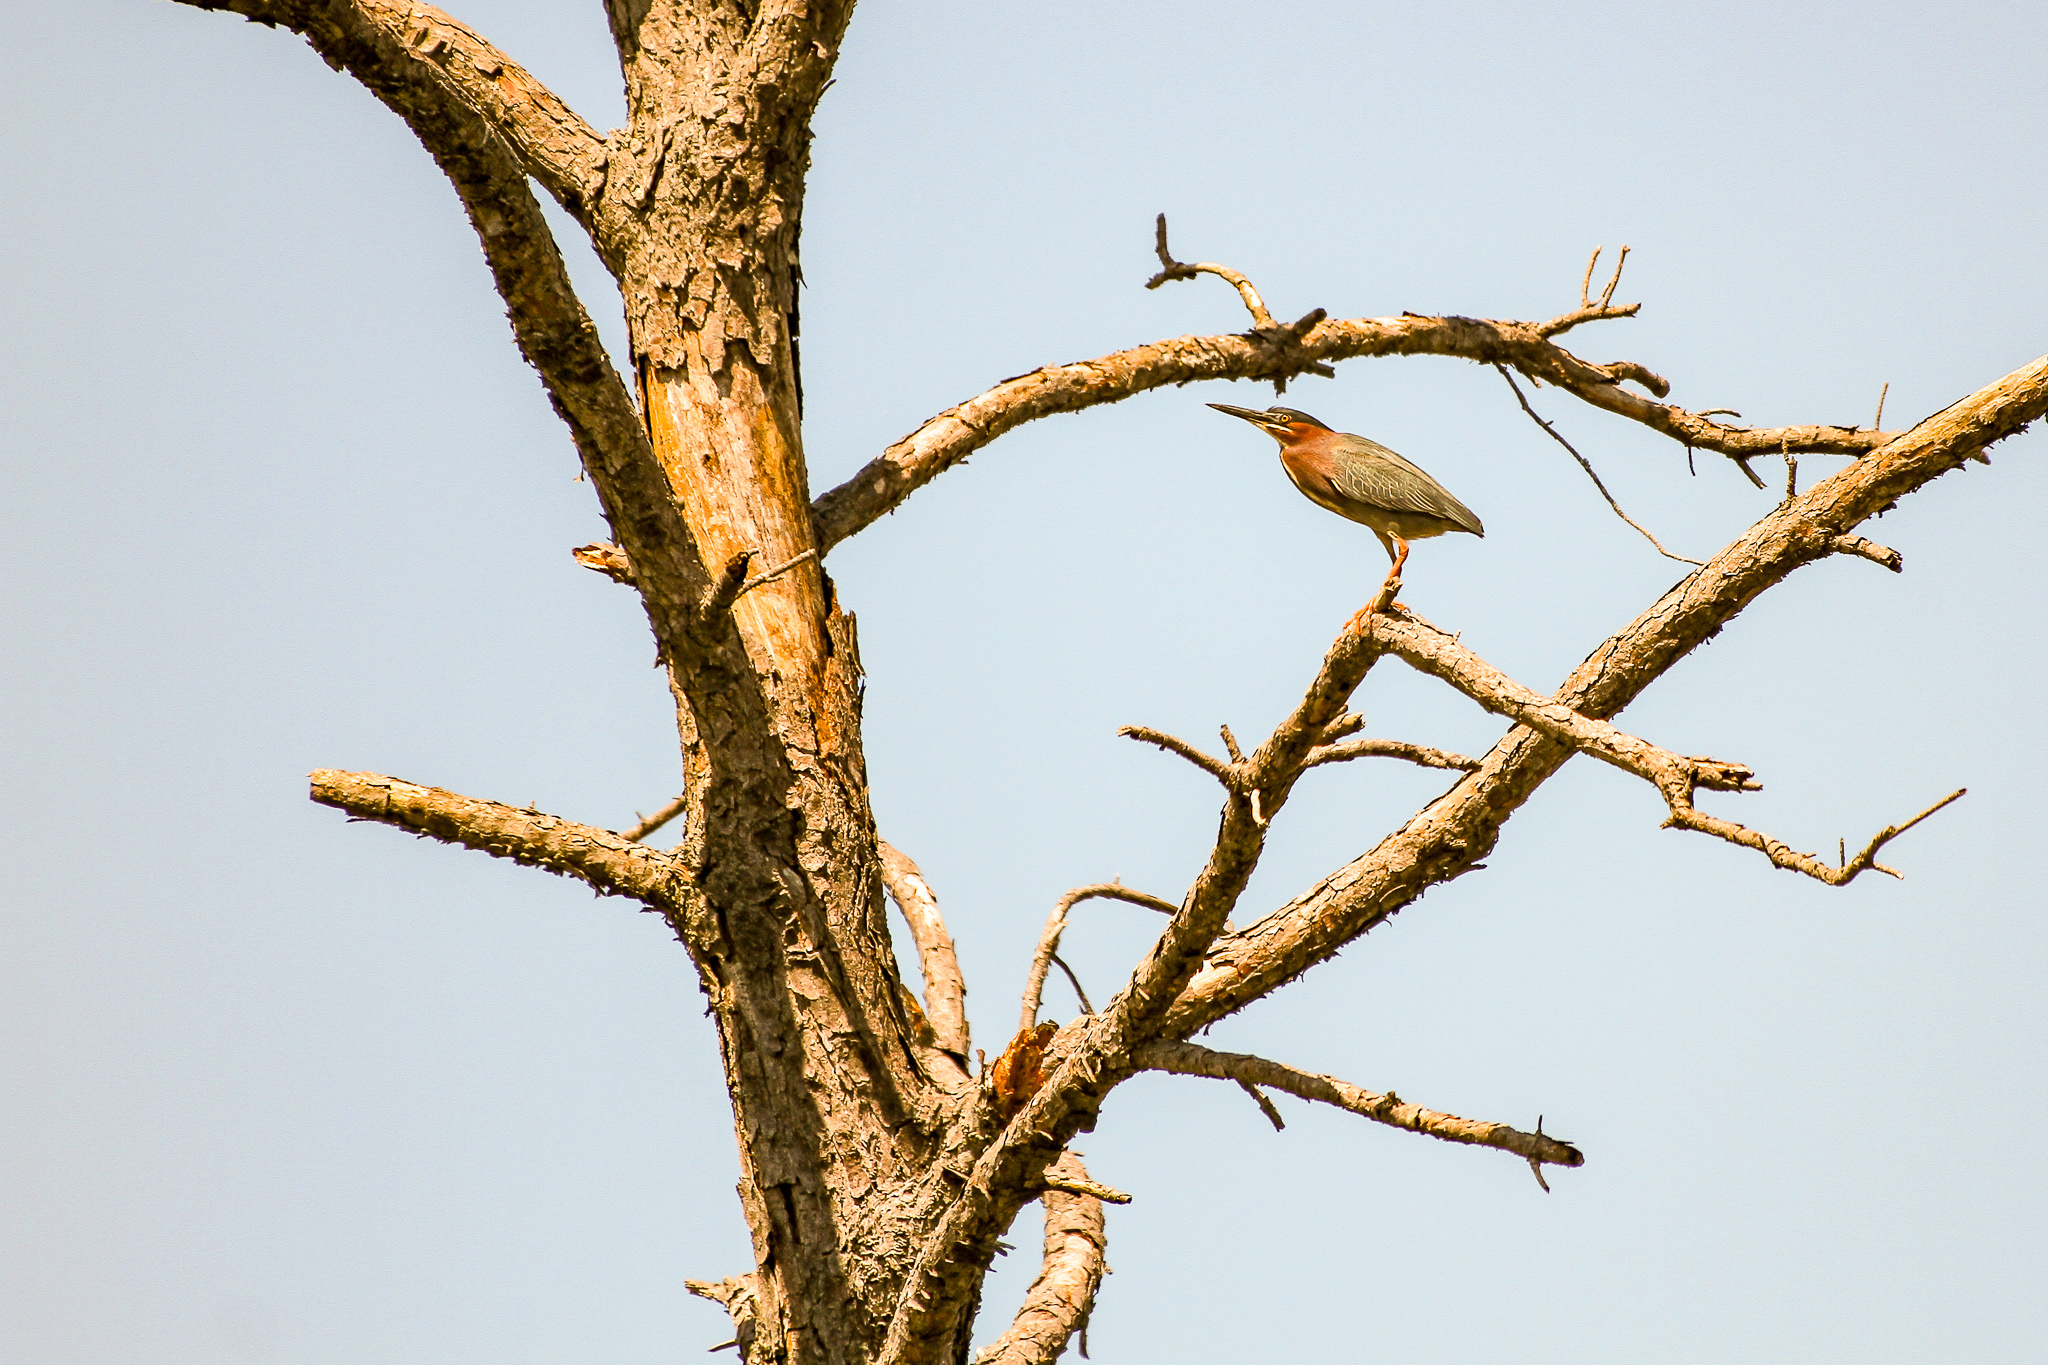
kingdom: Animalia
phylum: Chordata
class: Aves
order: Pelecaniformes
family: Ardeidae
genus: Butorides
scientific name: Butorides virescens
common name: Green heron
